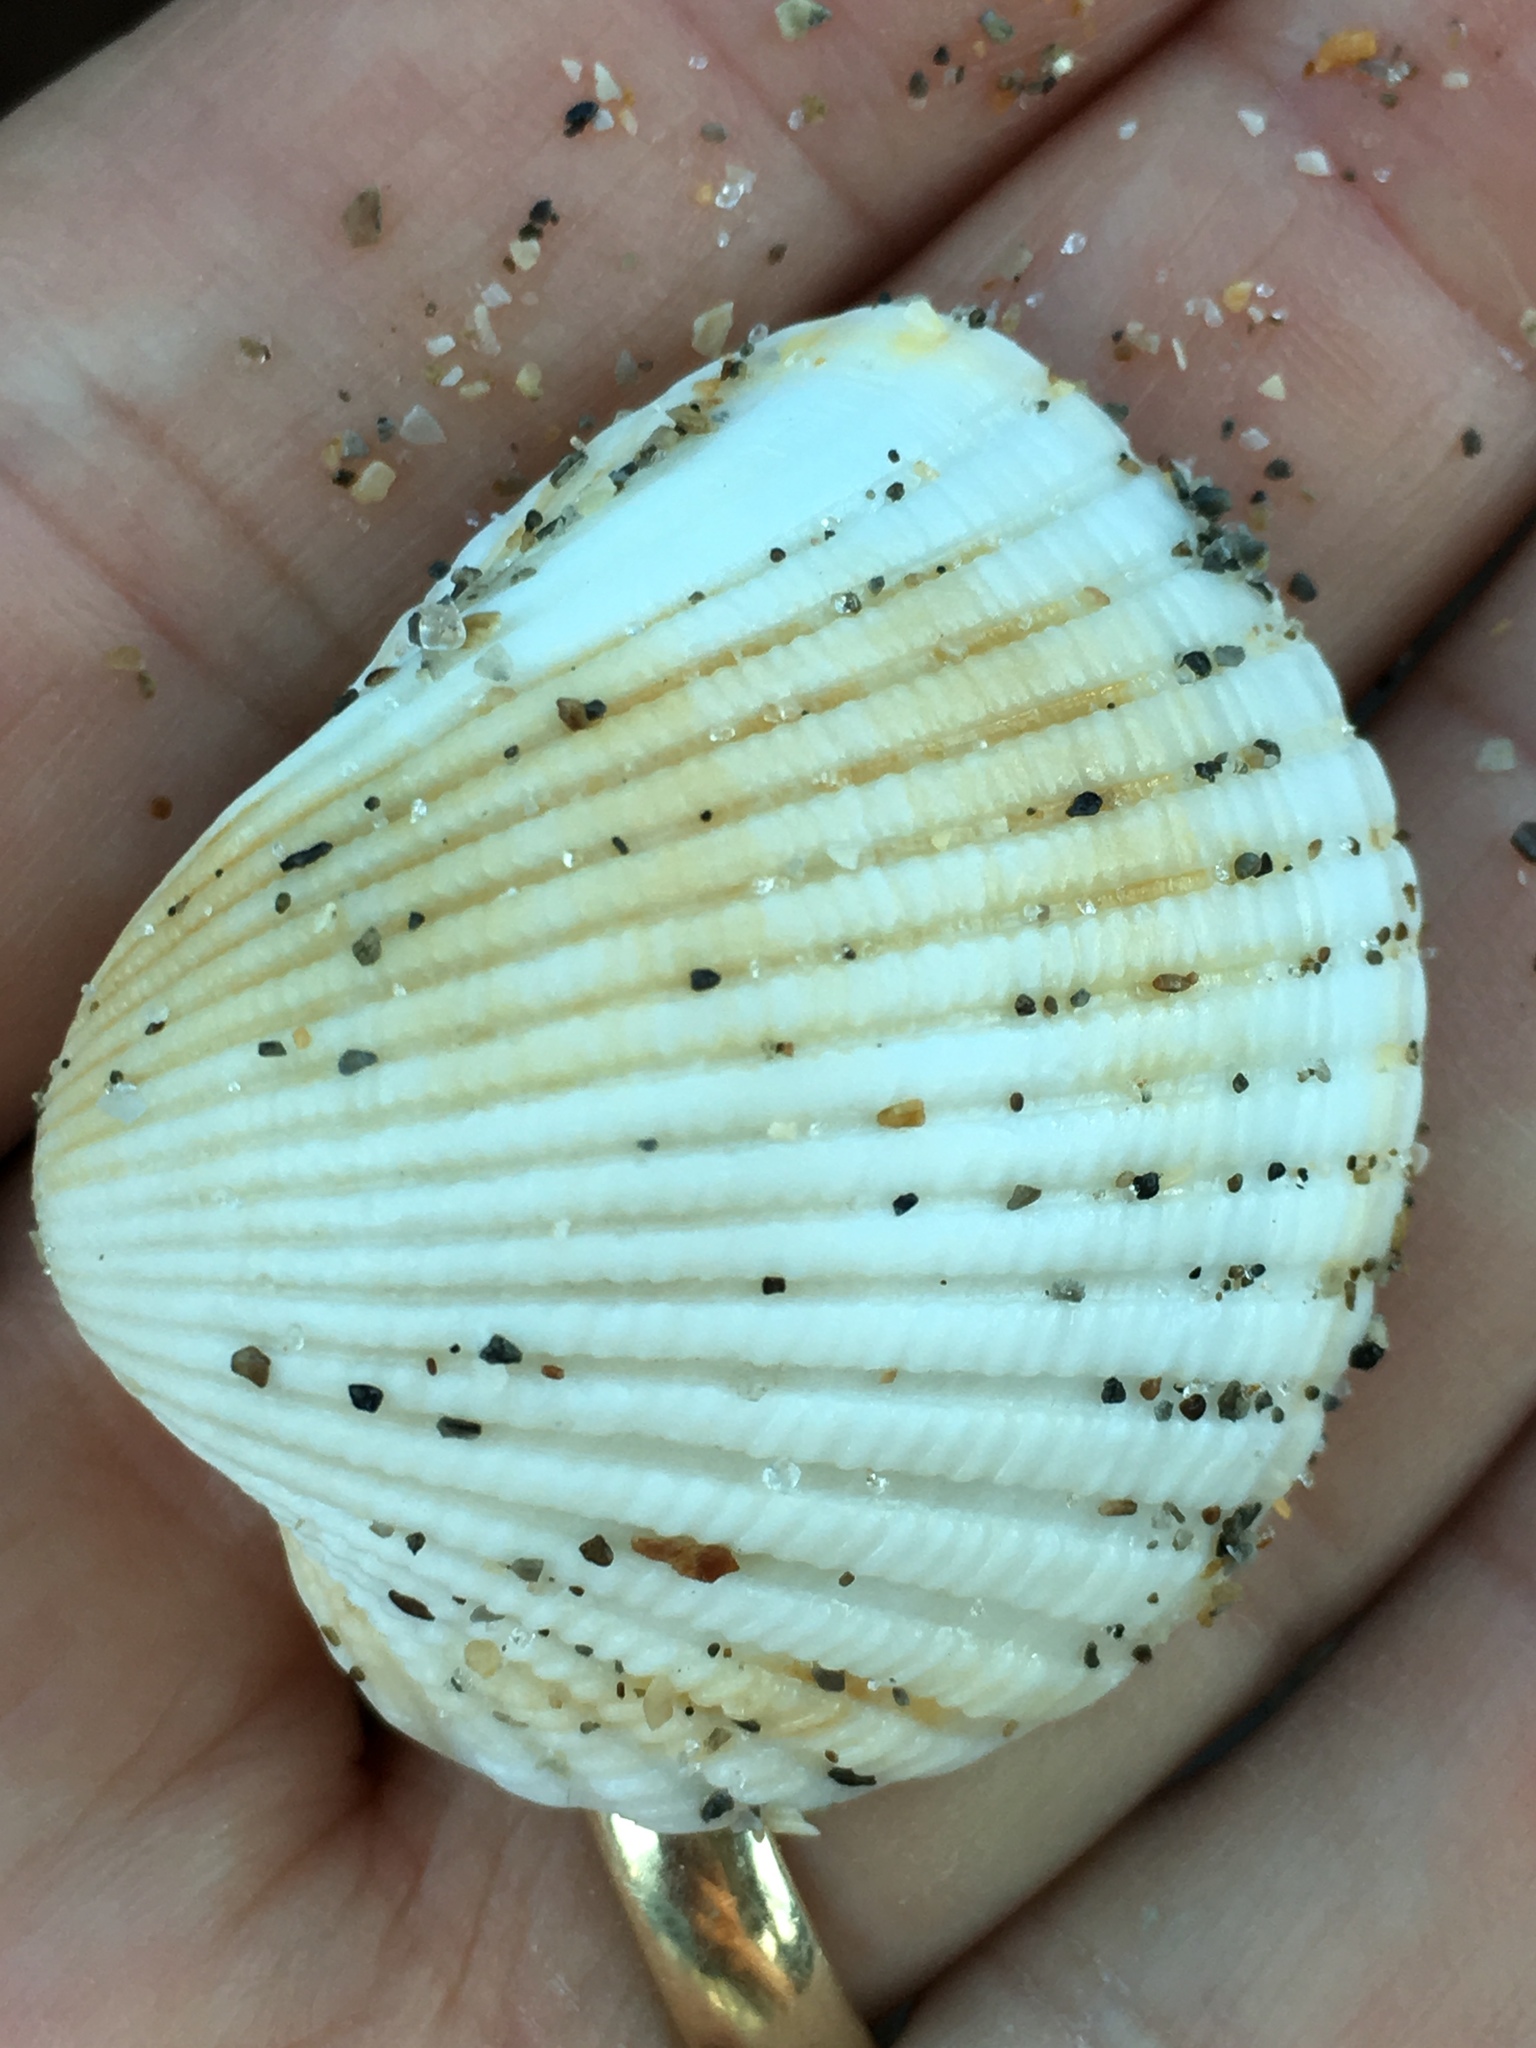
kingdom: Animalia
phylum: Mollusca
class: Bivalvia
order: Arcida
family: Arcidae
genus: Anadara
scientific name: Anadara brasiliana
